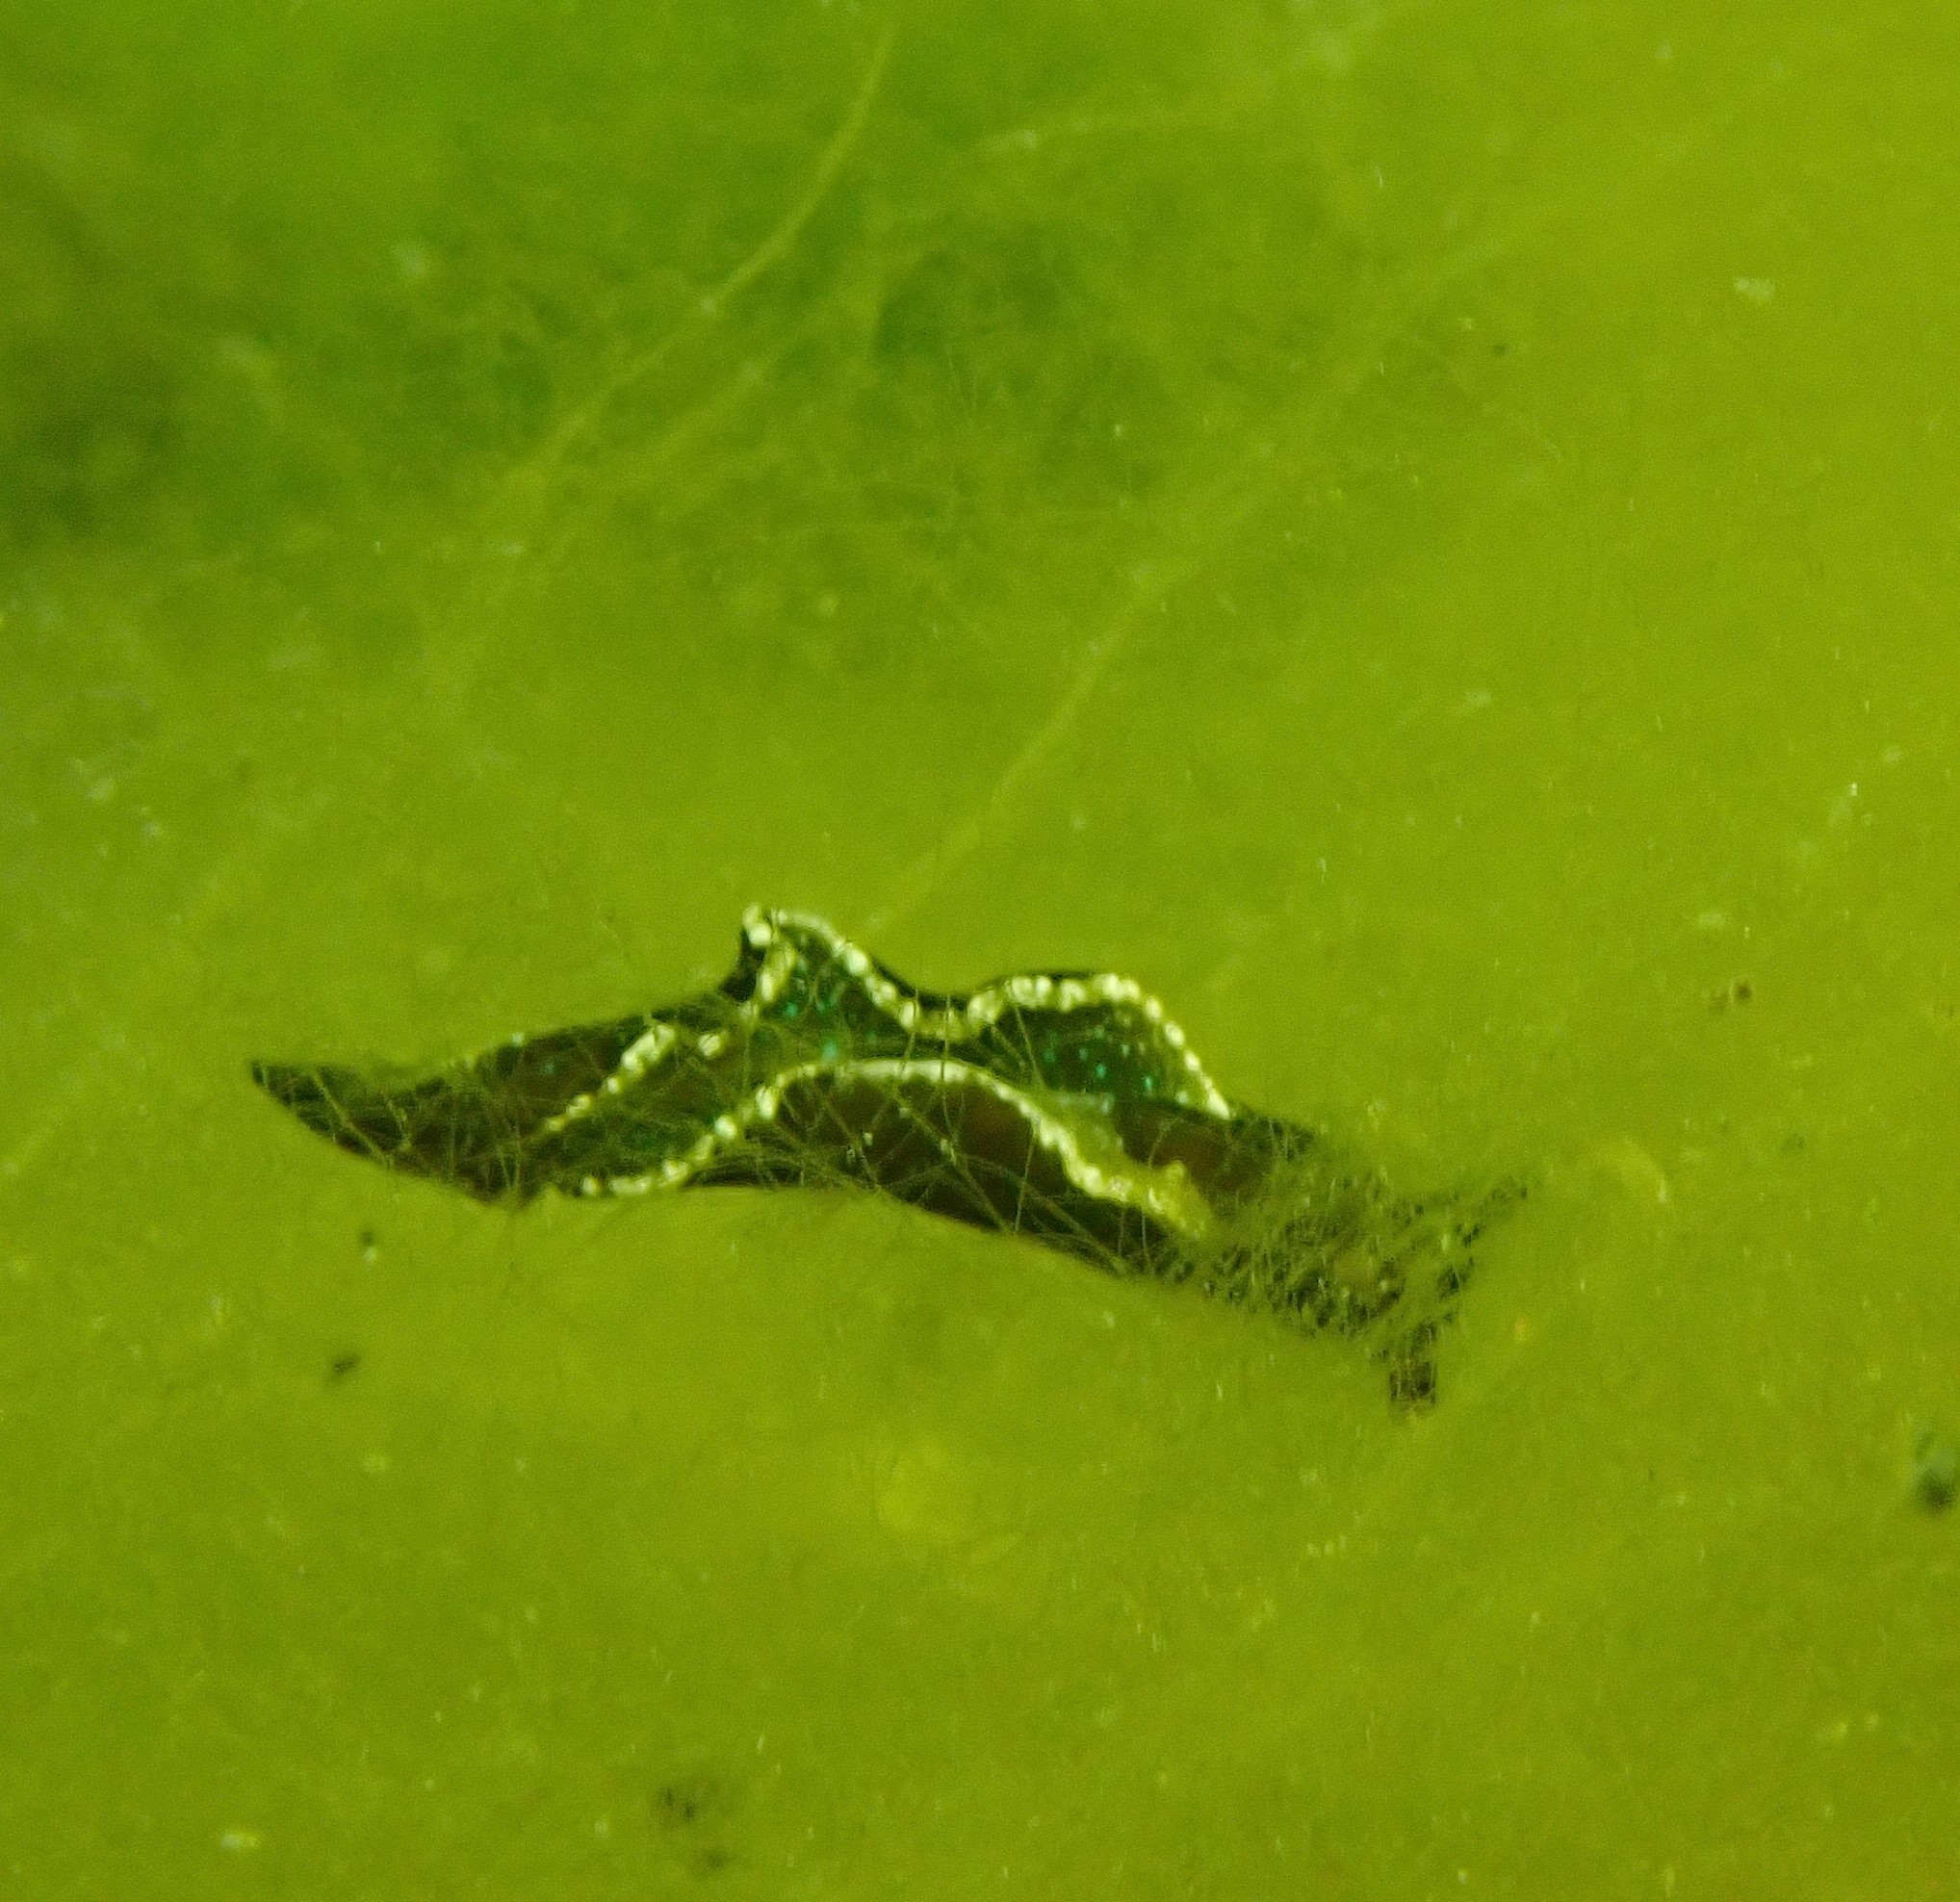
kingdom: Animalia
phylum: Mollusca
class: Gastropoda
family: Plakobranchidae
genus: Elysia
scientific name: Elysia viridis
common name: Green elysia
